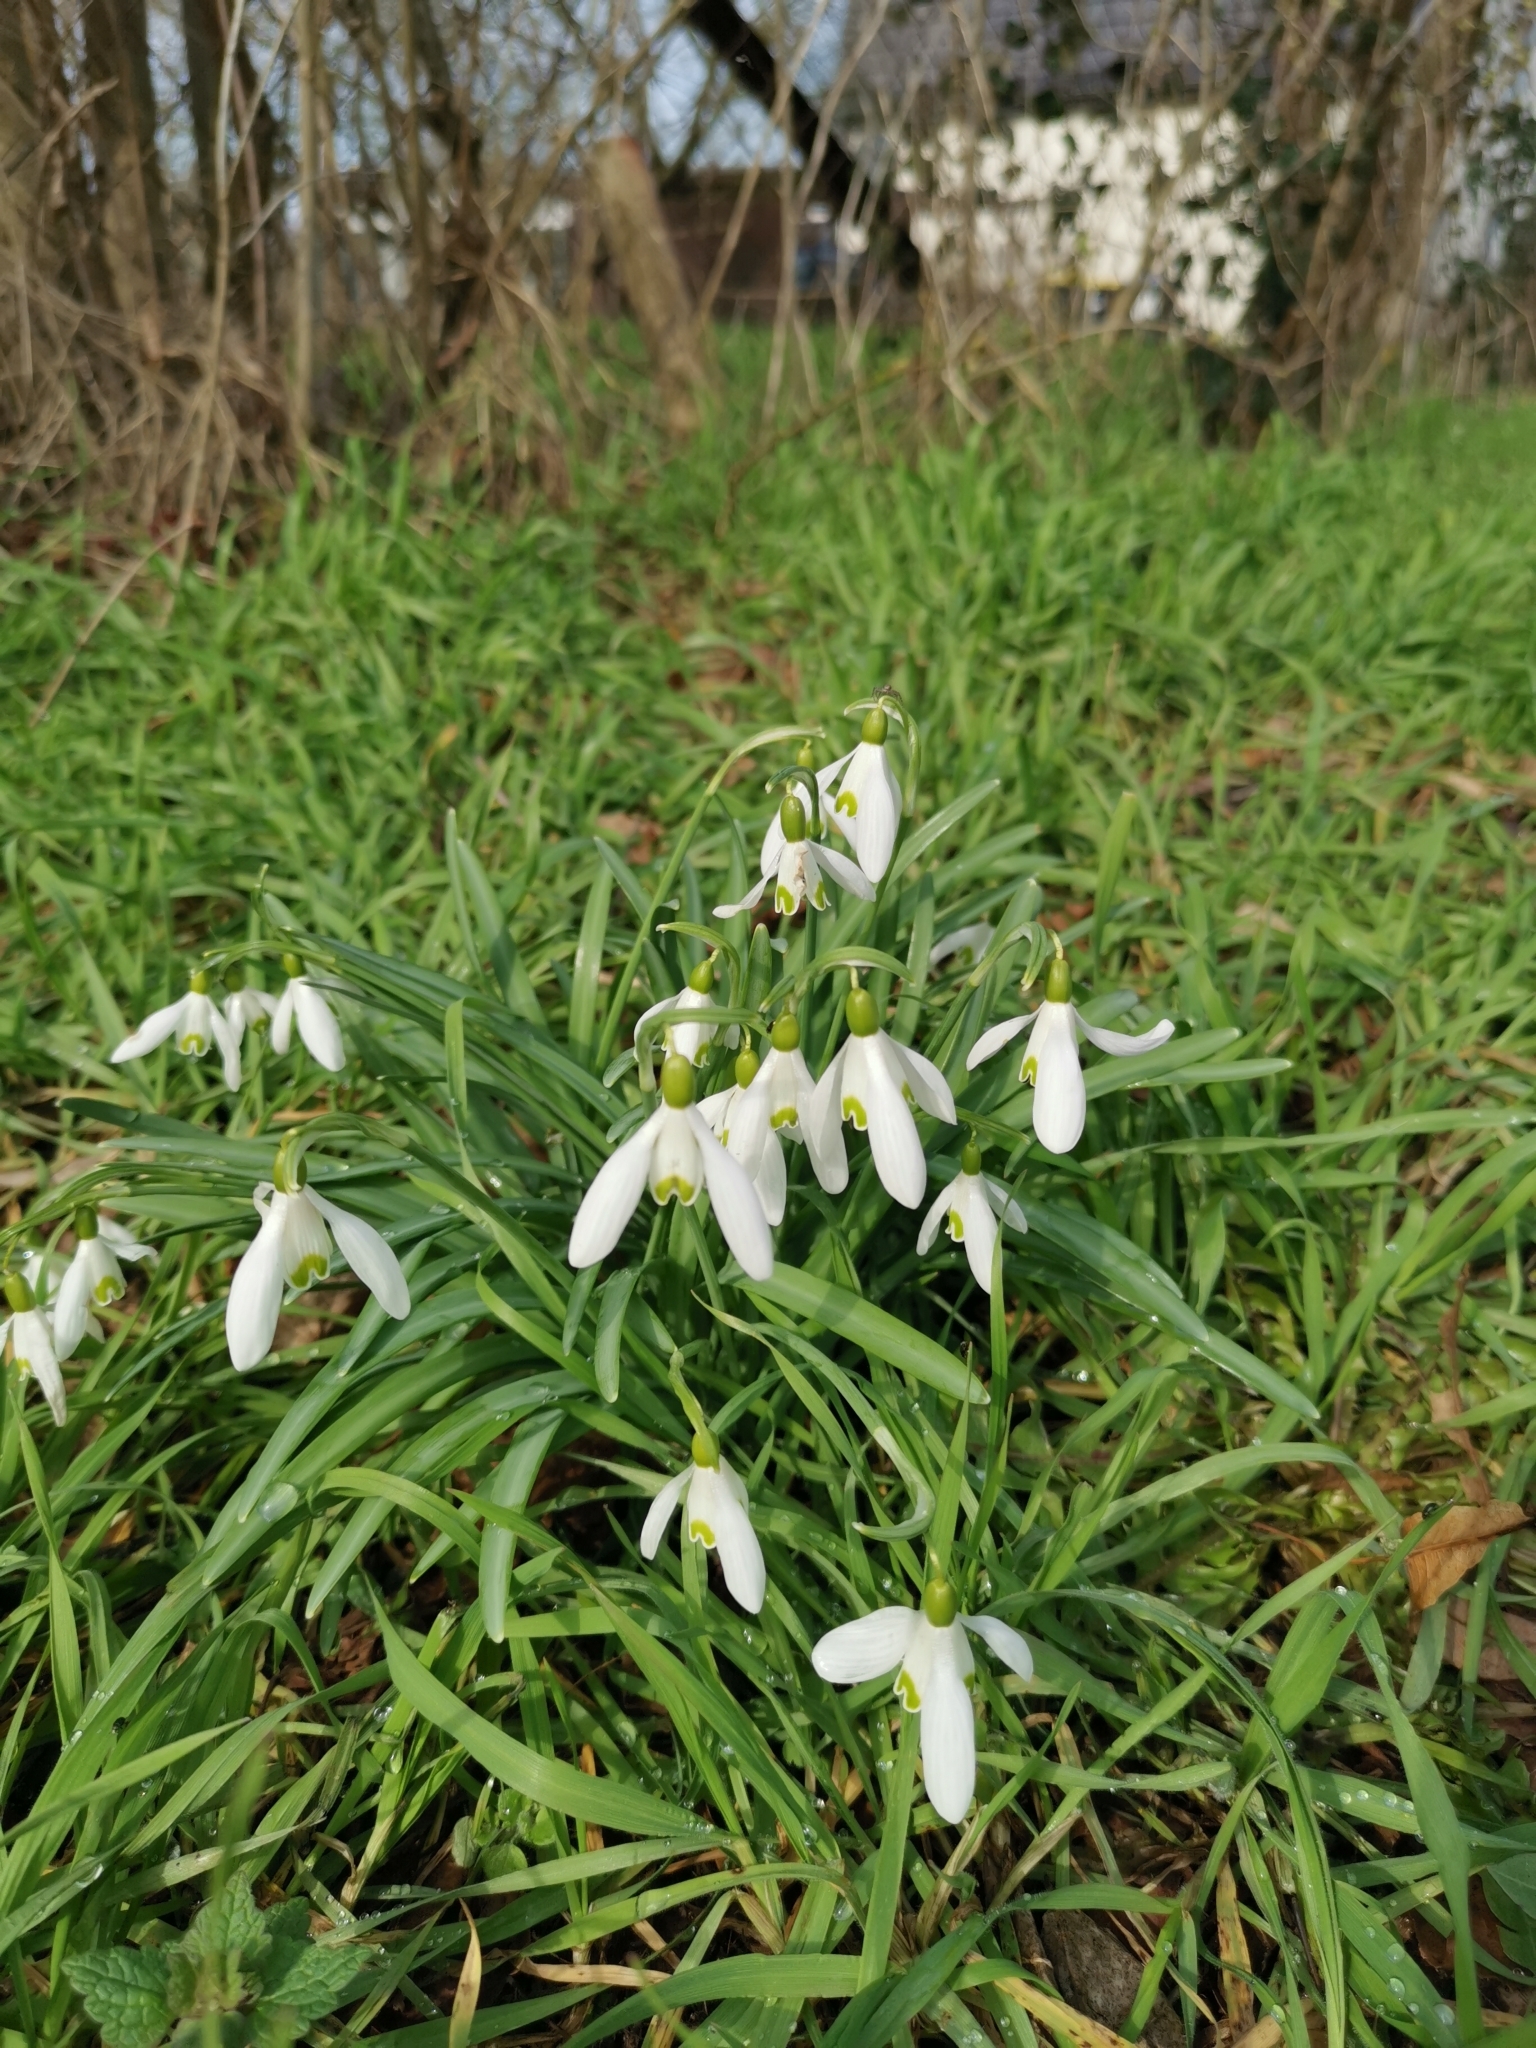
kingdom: Plantae
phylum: Tracheophyta
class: Liliopsida
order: Asparagales
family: Amaryllidaceae
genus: Galanthus
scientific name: Galanthus nivalis
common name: Snowdrop
